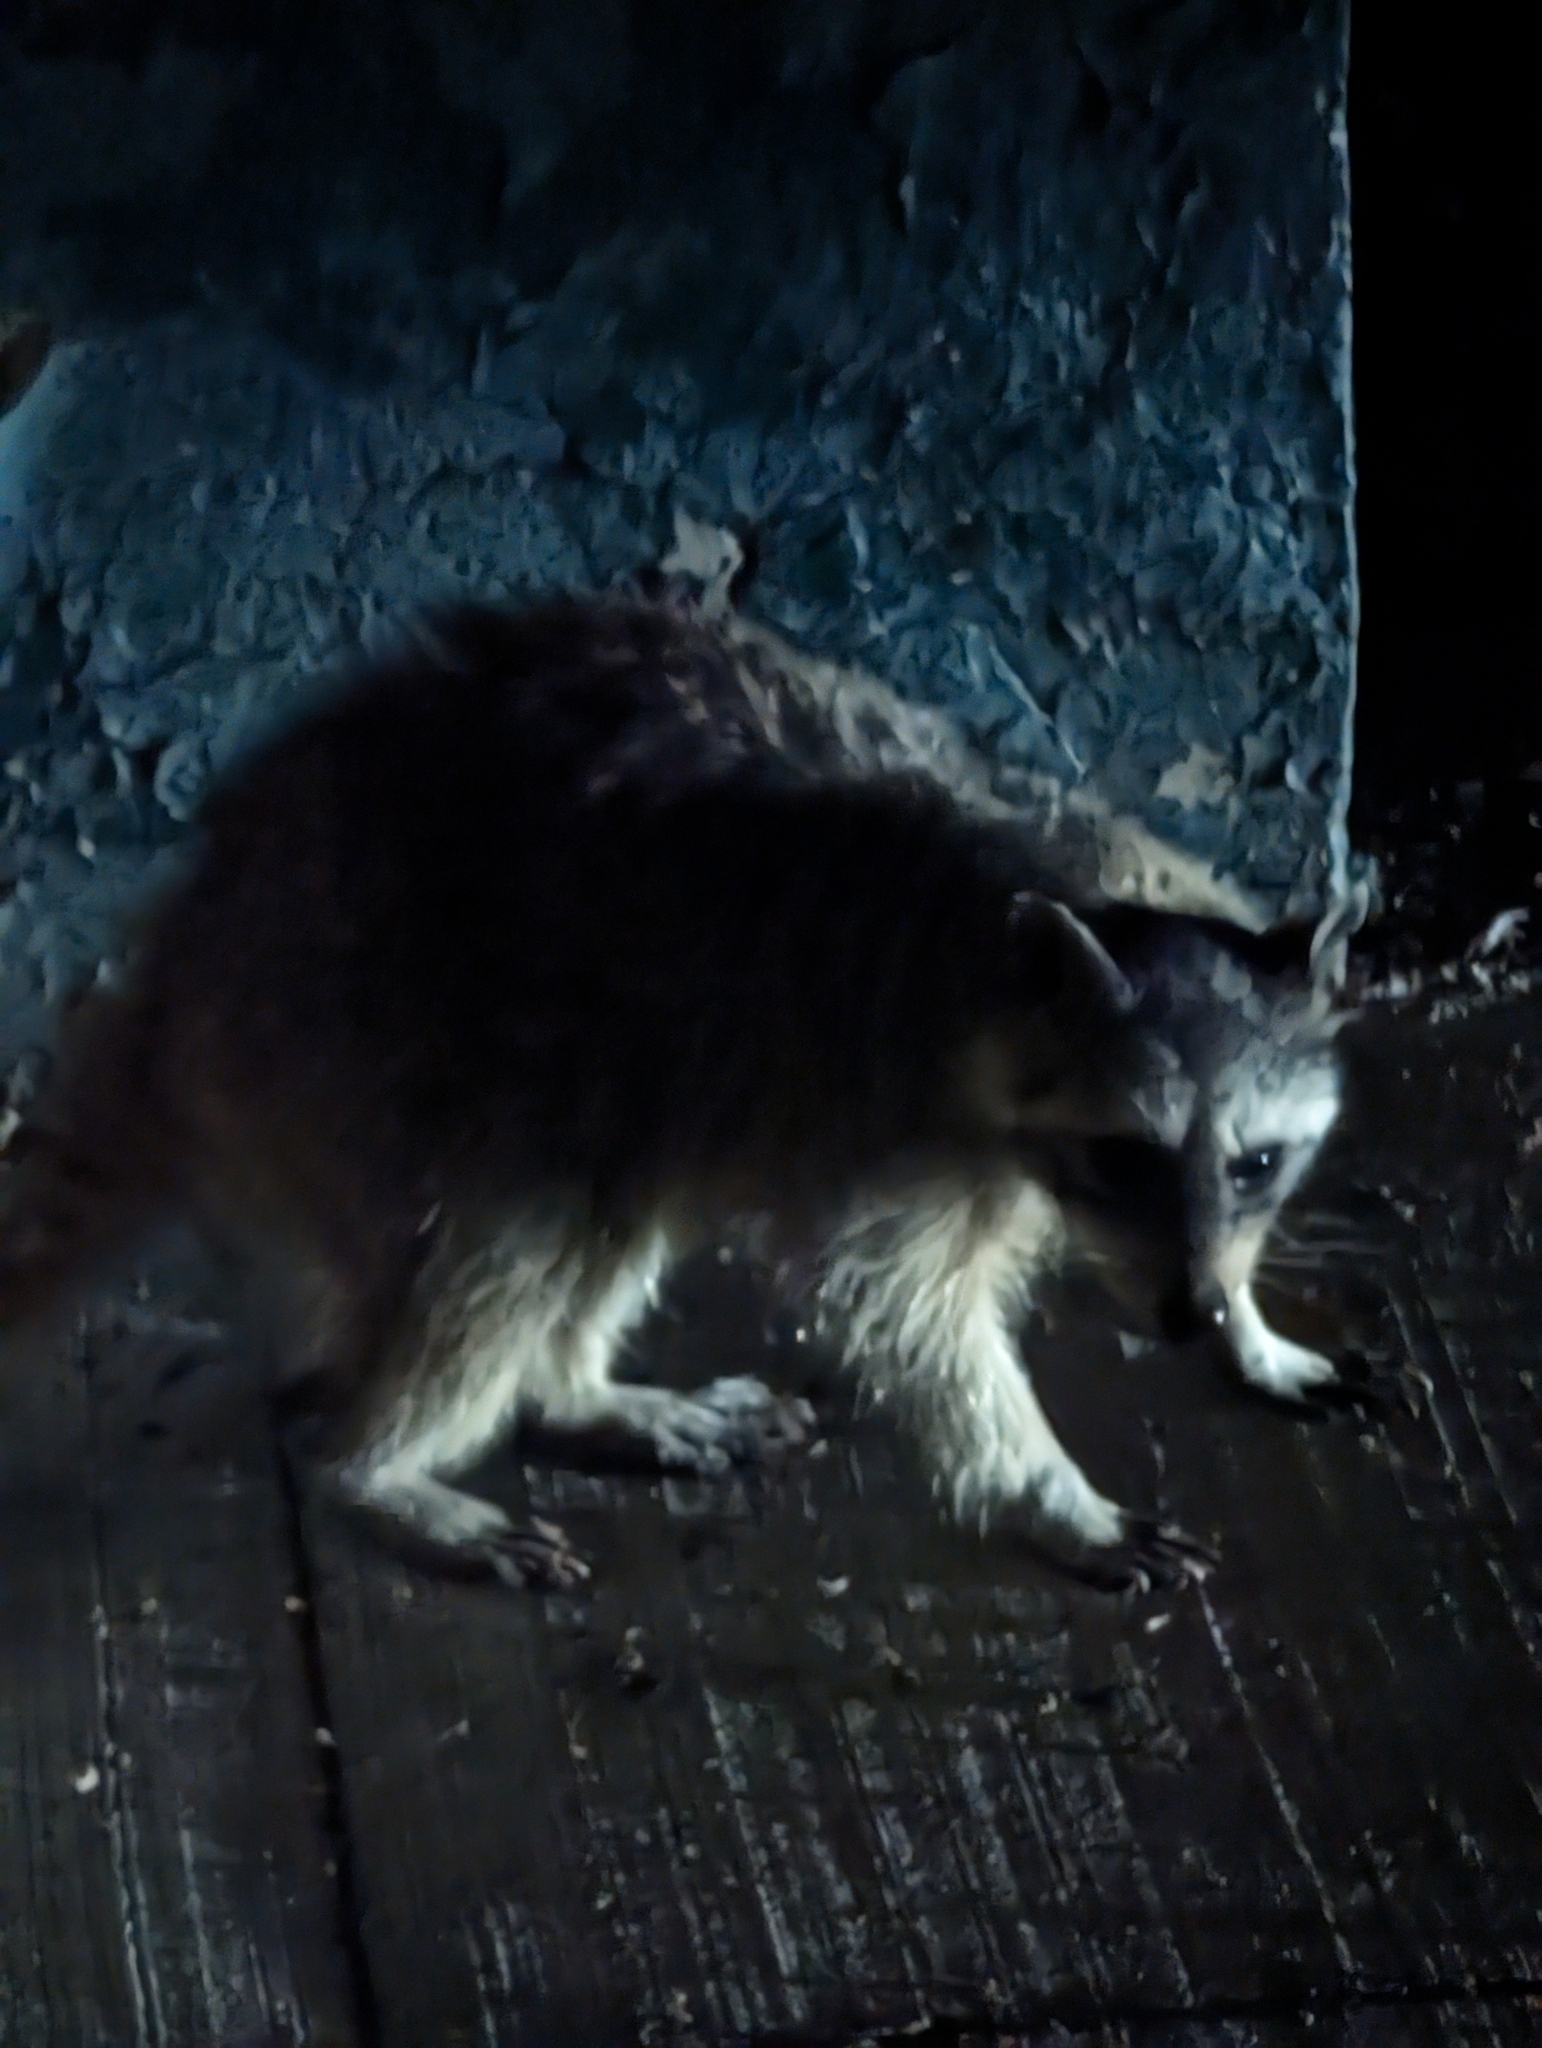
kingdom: Animalia
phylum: Chordata
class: Mammalia
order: Carnivora
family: Procyonidae
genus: Procyon
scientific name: Procyon lotor
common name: Raccoon
